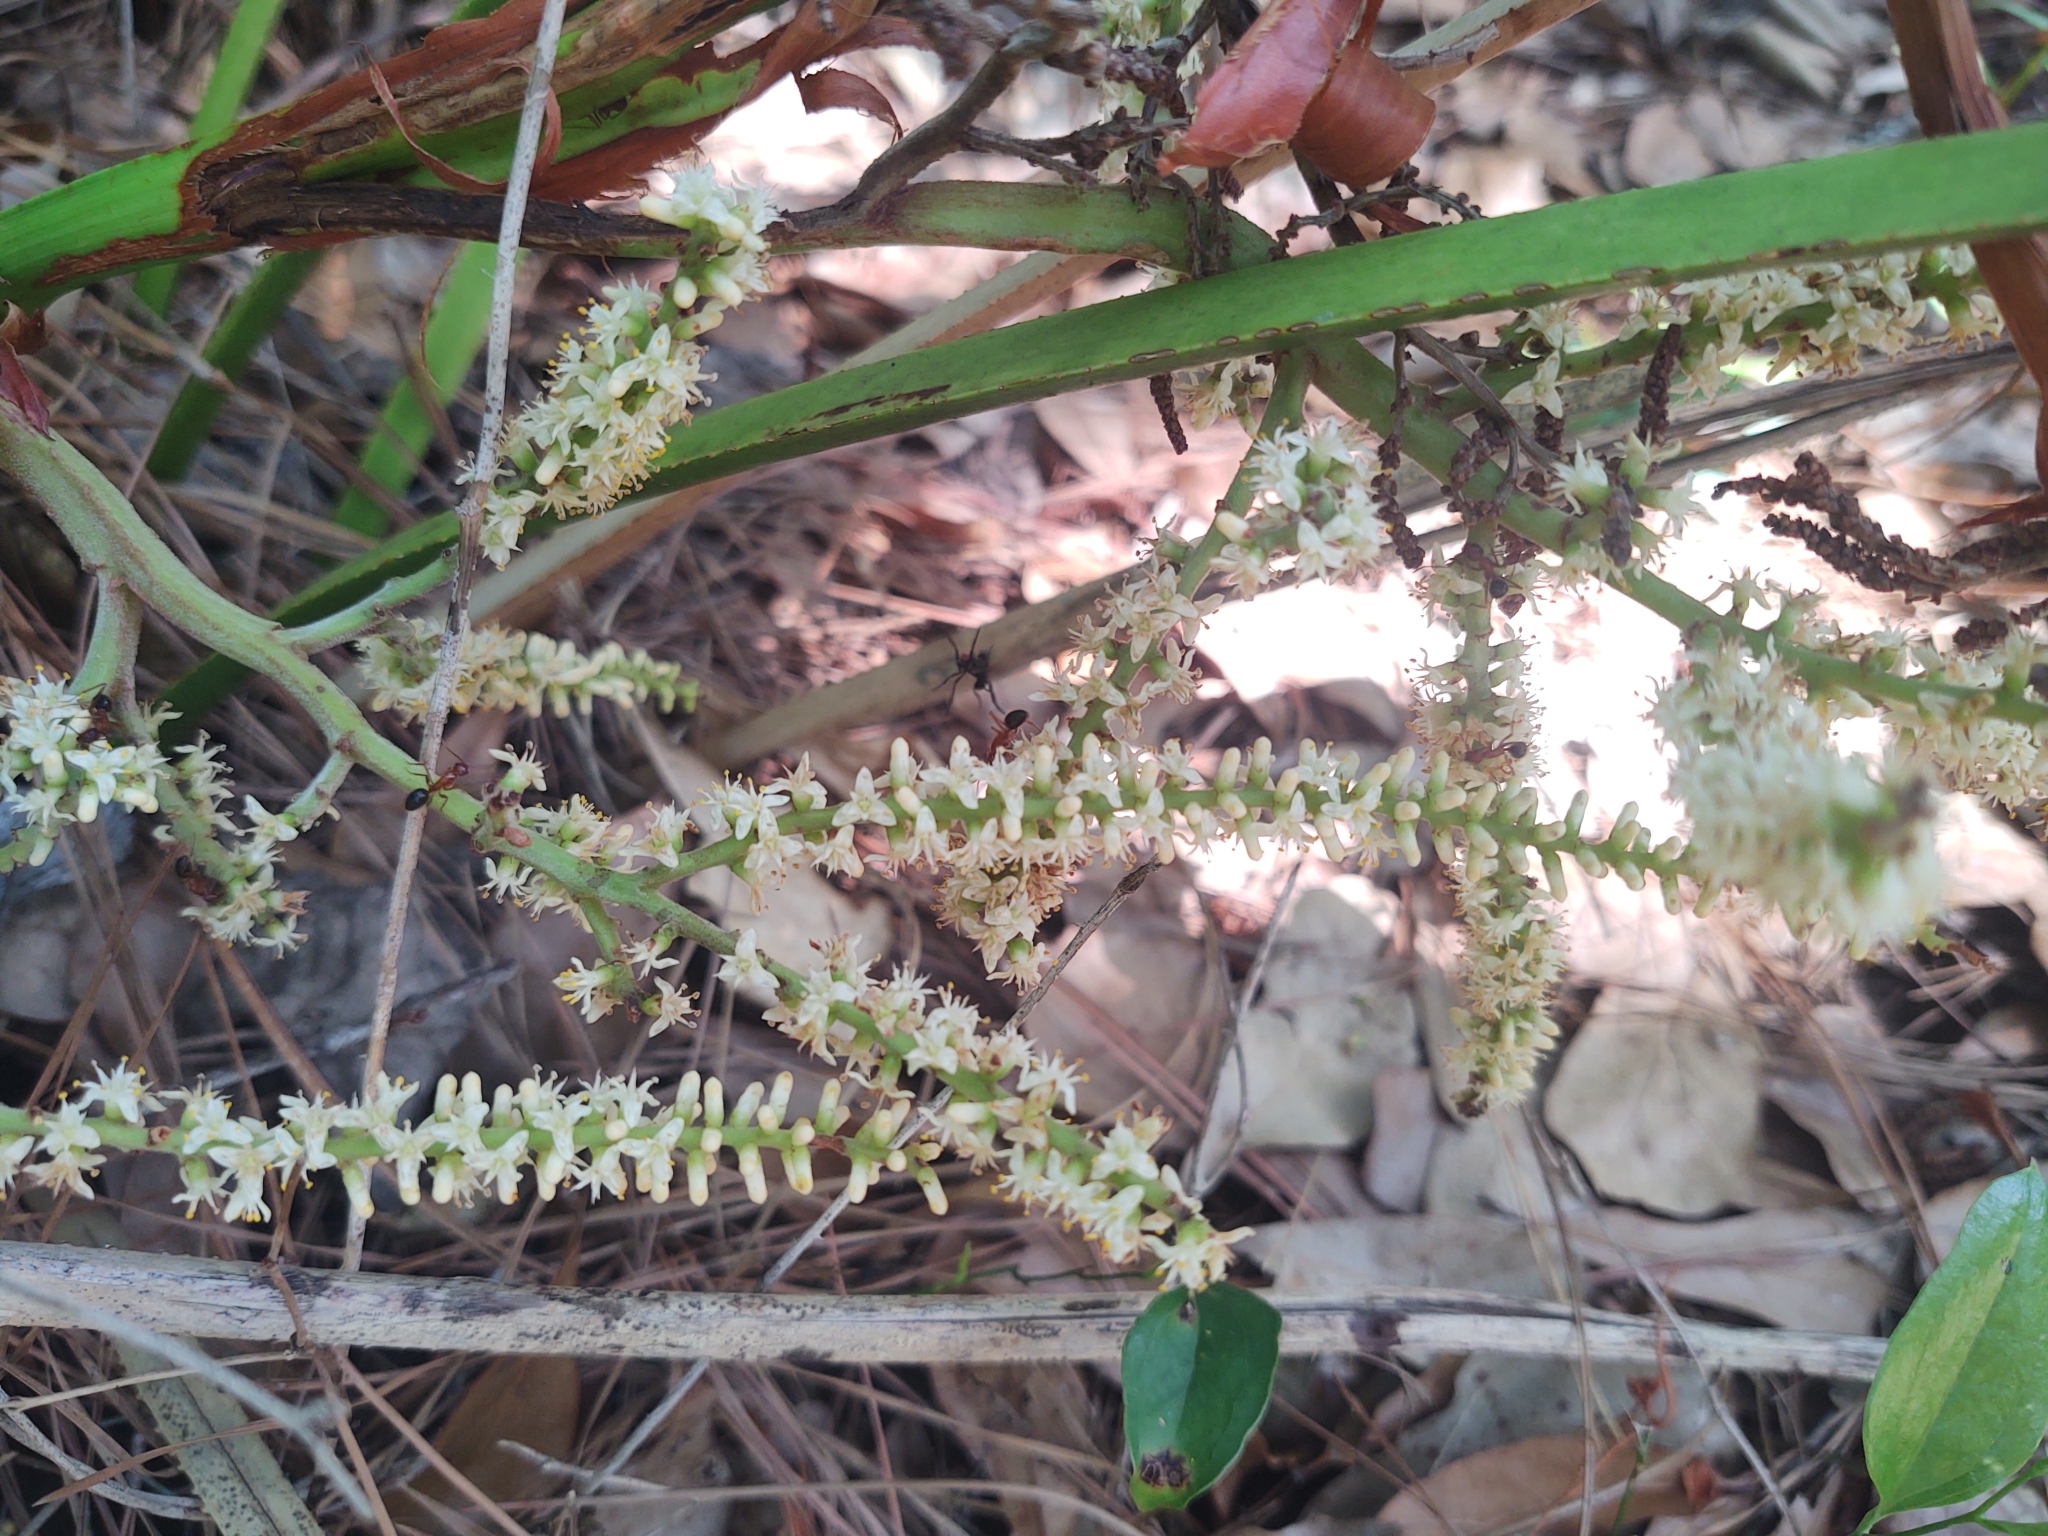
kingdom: Plantae
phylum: Tracheophyta
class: Liliopsida
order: Arecales
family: Arecaceae
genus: Serenoa
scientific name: Serenoa repens
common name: Saw-palmetto
